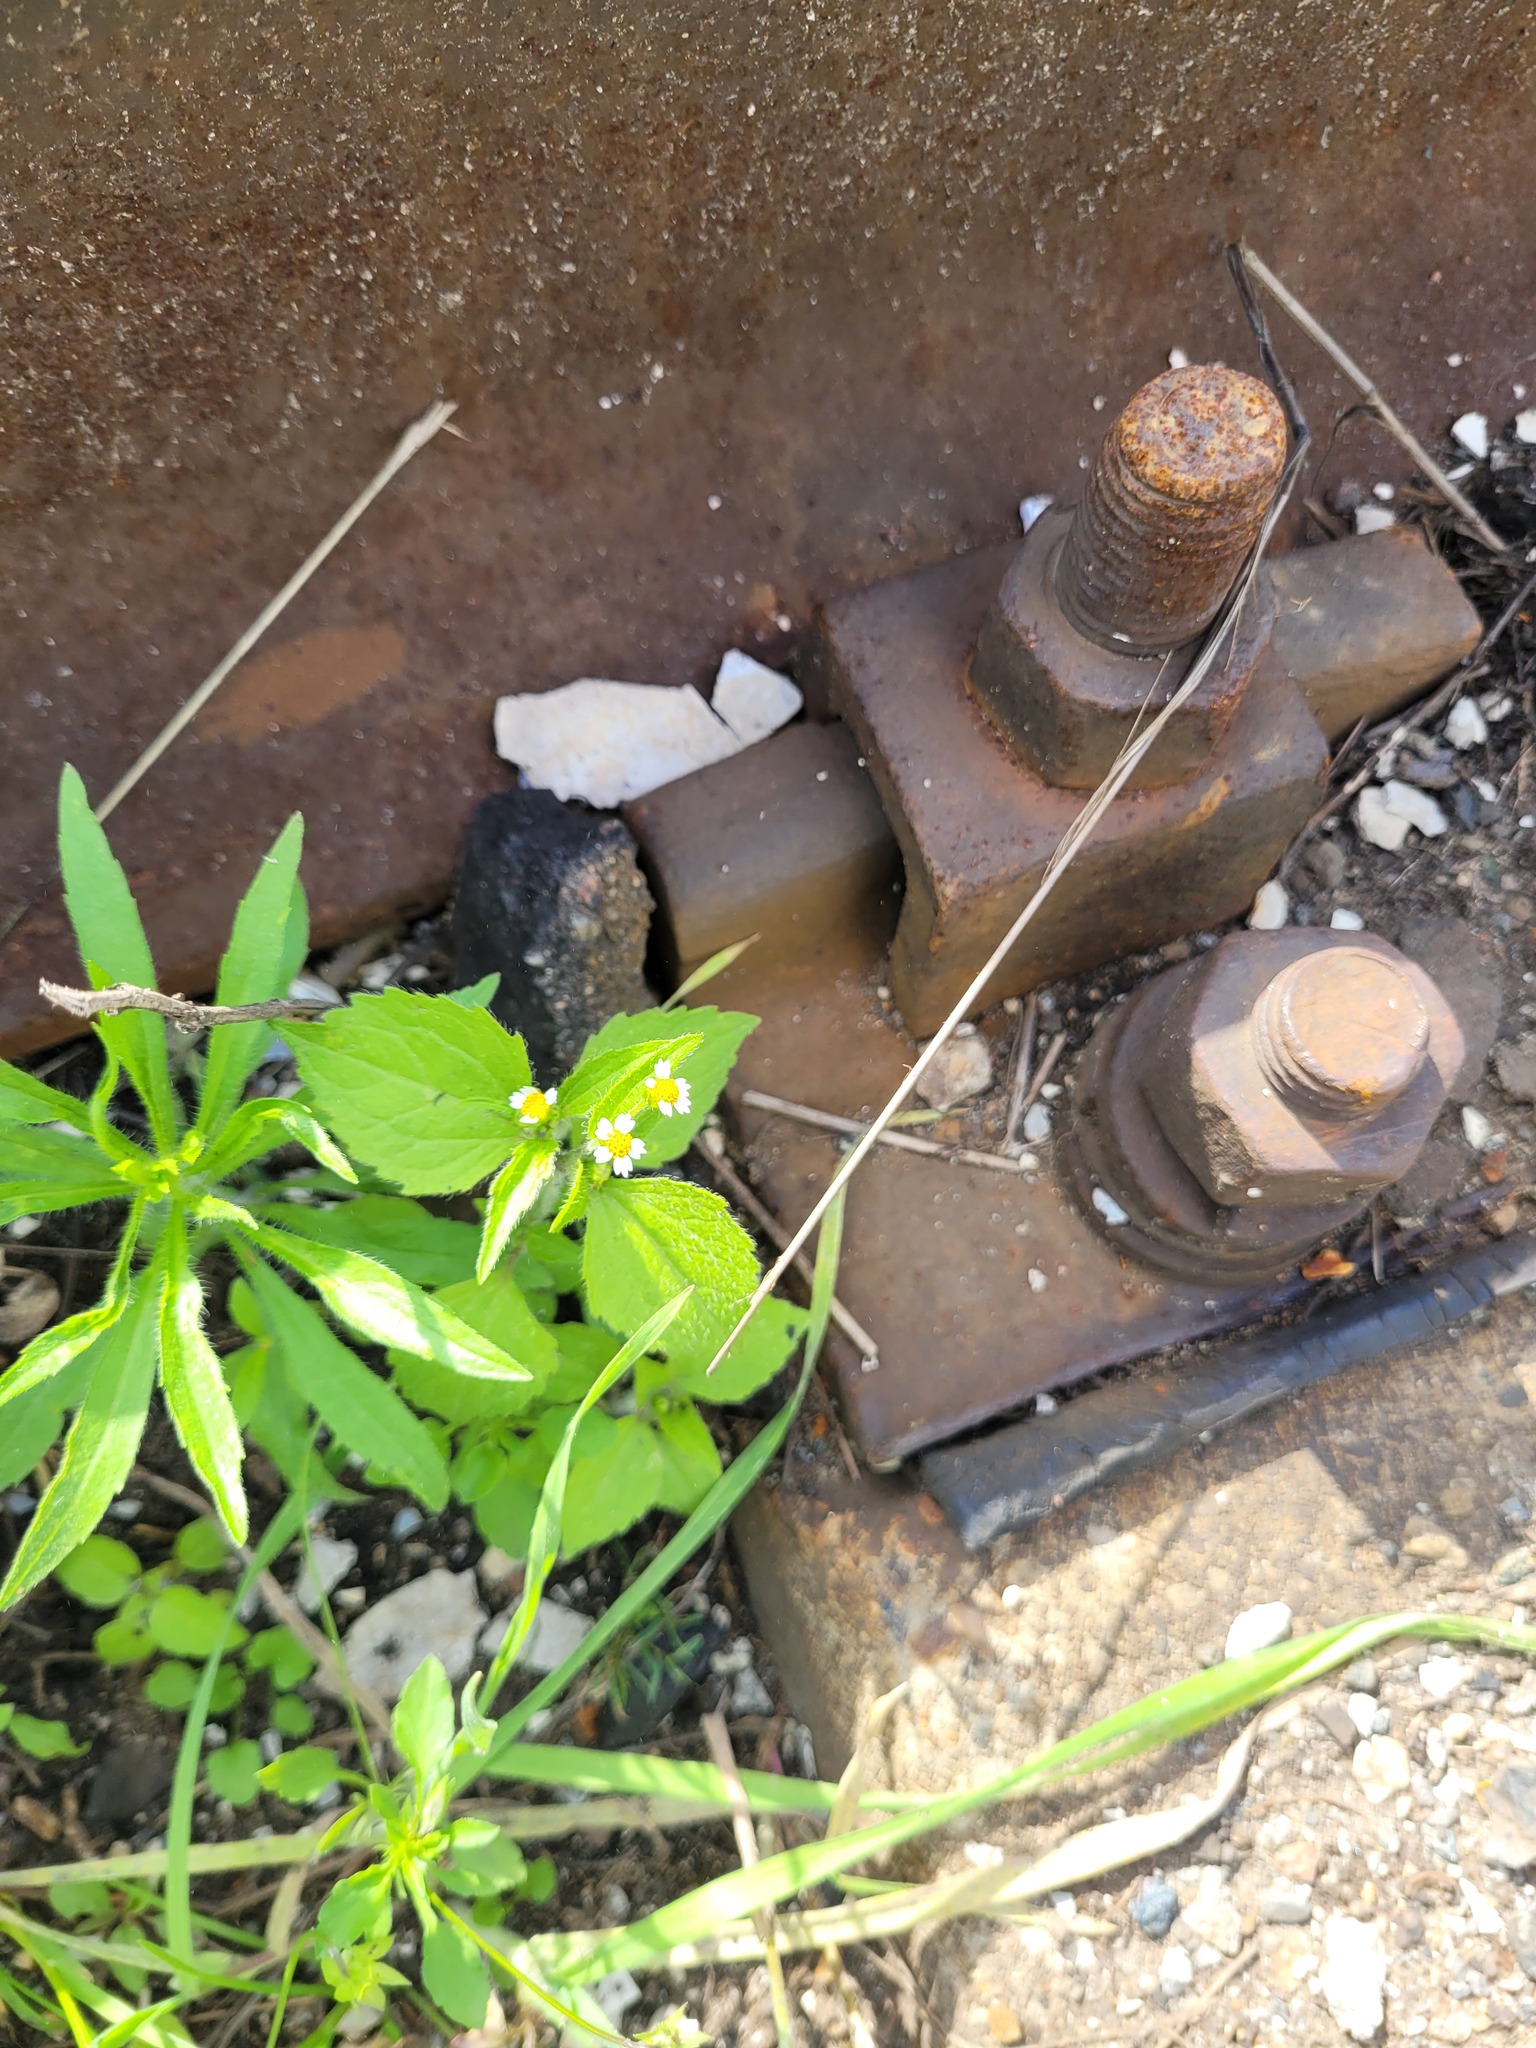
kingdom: Plantae
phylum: Tracheophyta
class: Magnoliopsida
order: Asterales
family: Asteraceae
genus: Galinsoga
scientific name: Galinsoga quadriradiata
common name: Shaggy soldier
